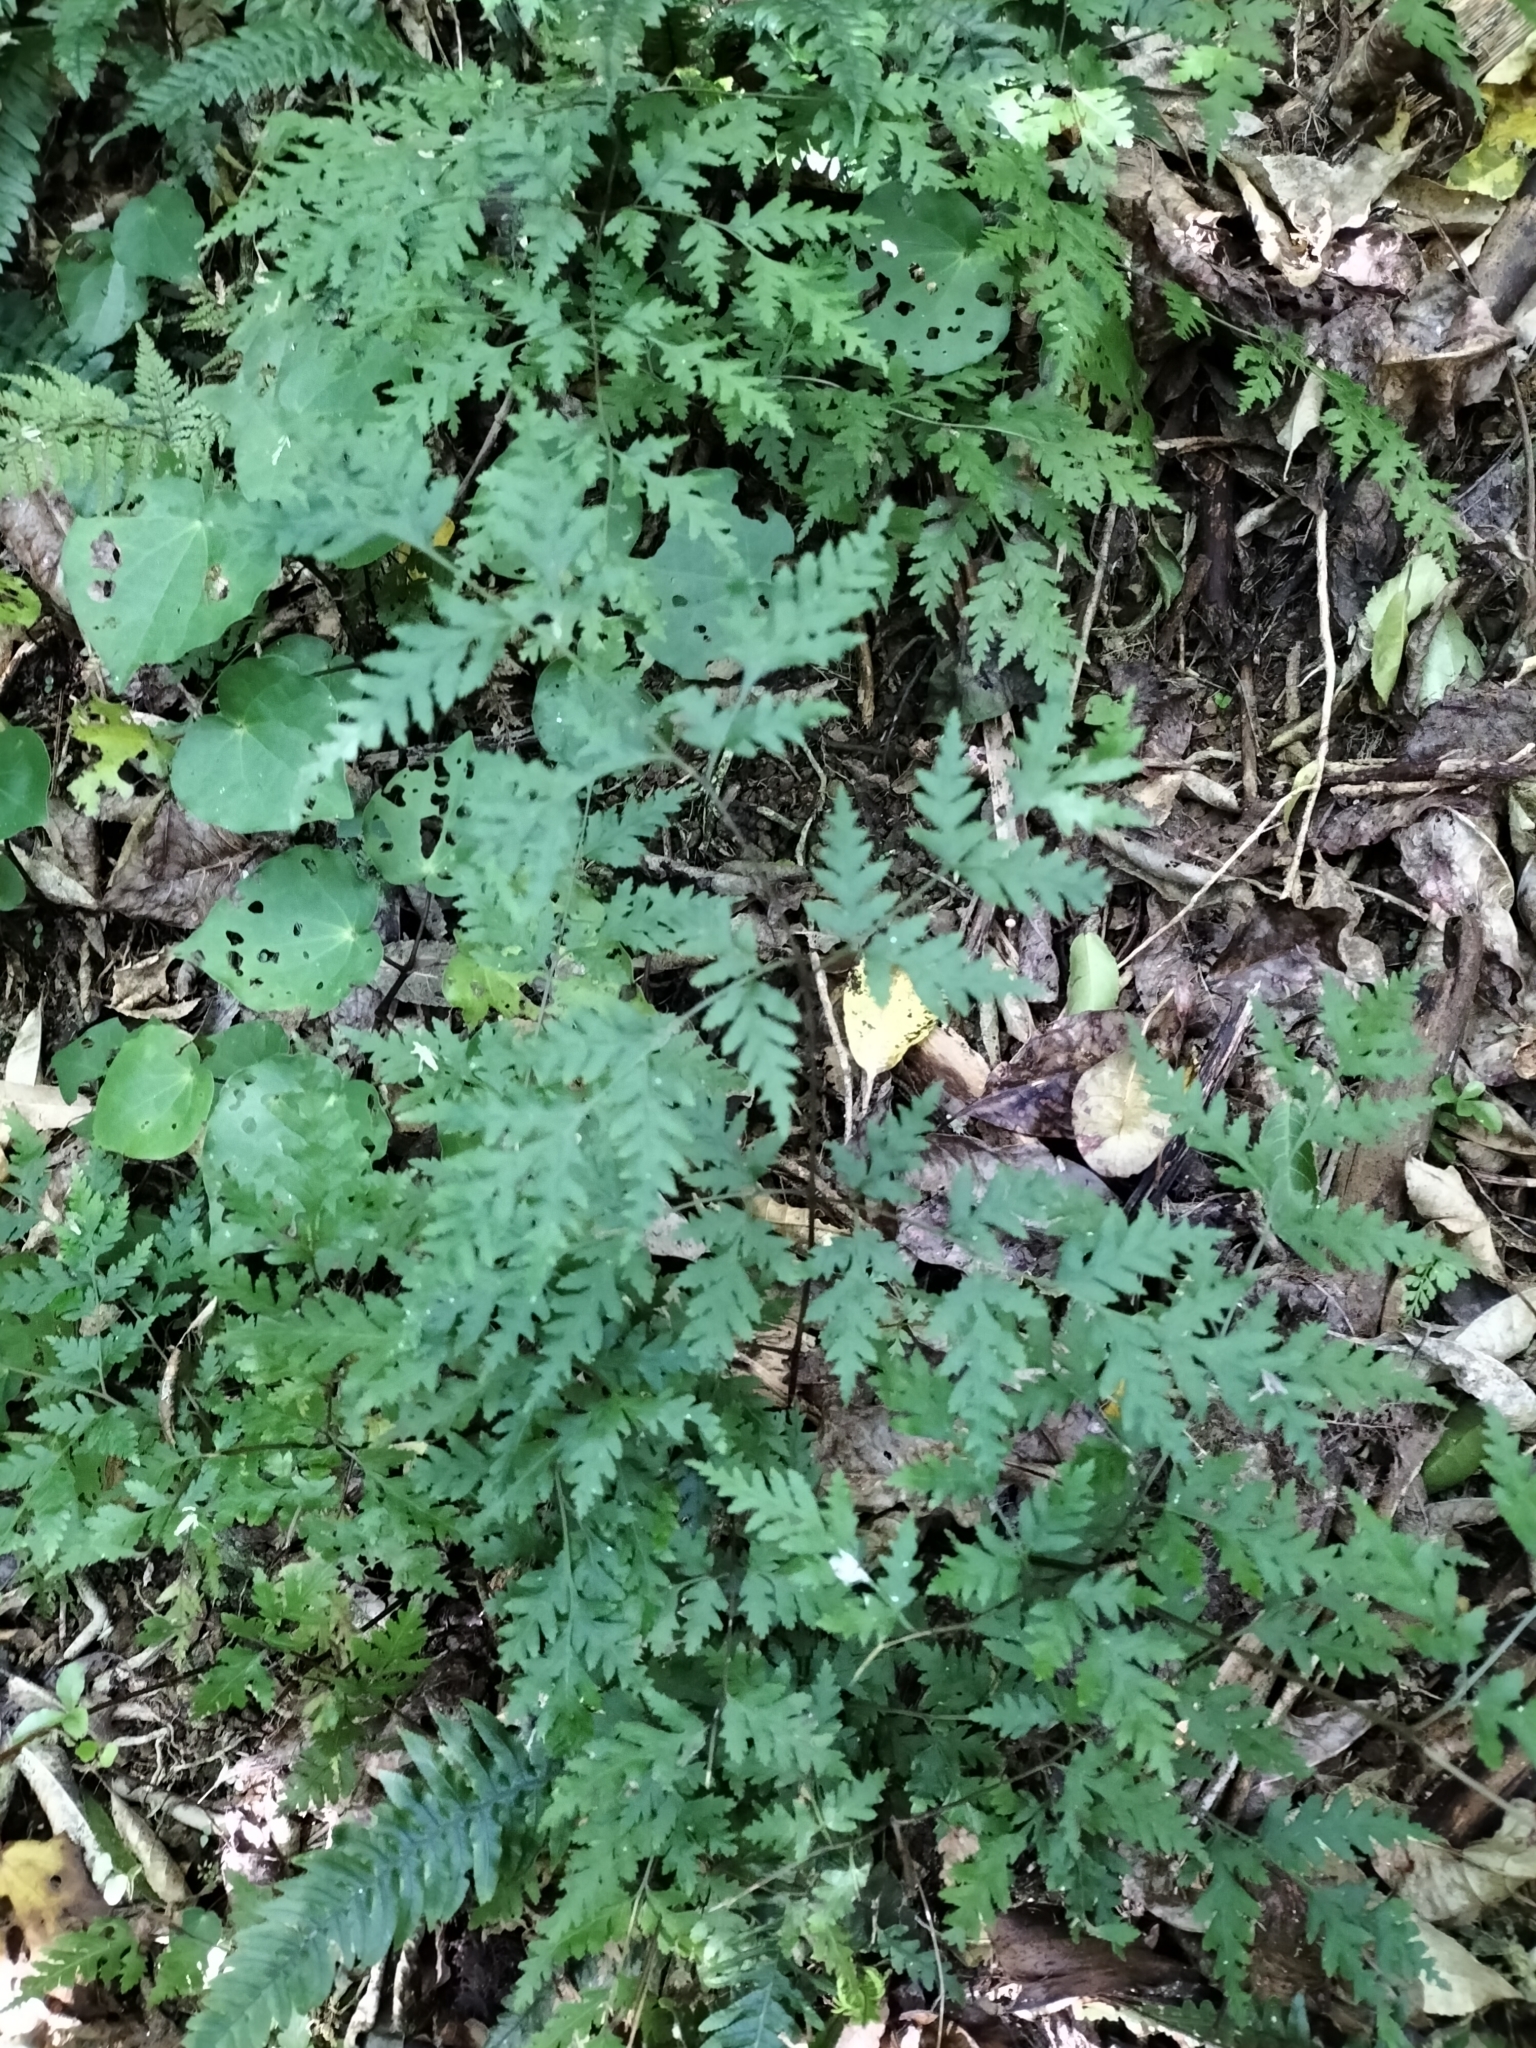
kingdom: Plantae
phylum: Tracheophyta
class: Polypodiopsida
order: Polypodiales
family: Pteridaceae
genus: Pteris
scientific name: Pteris macilenta
